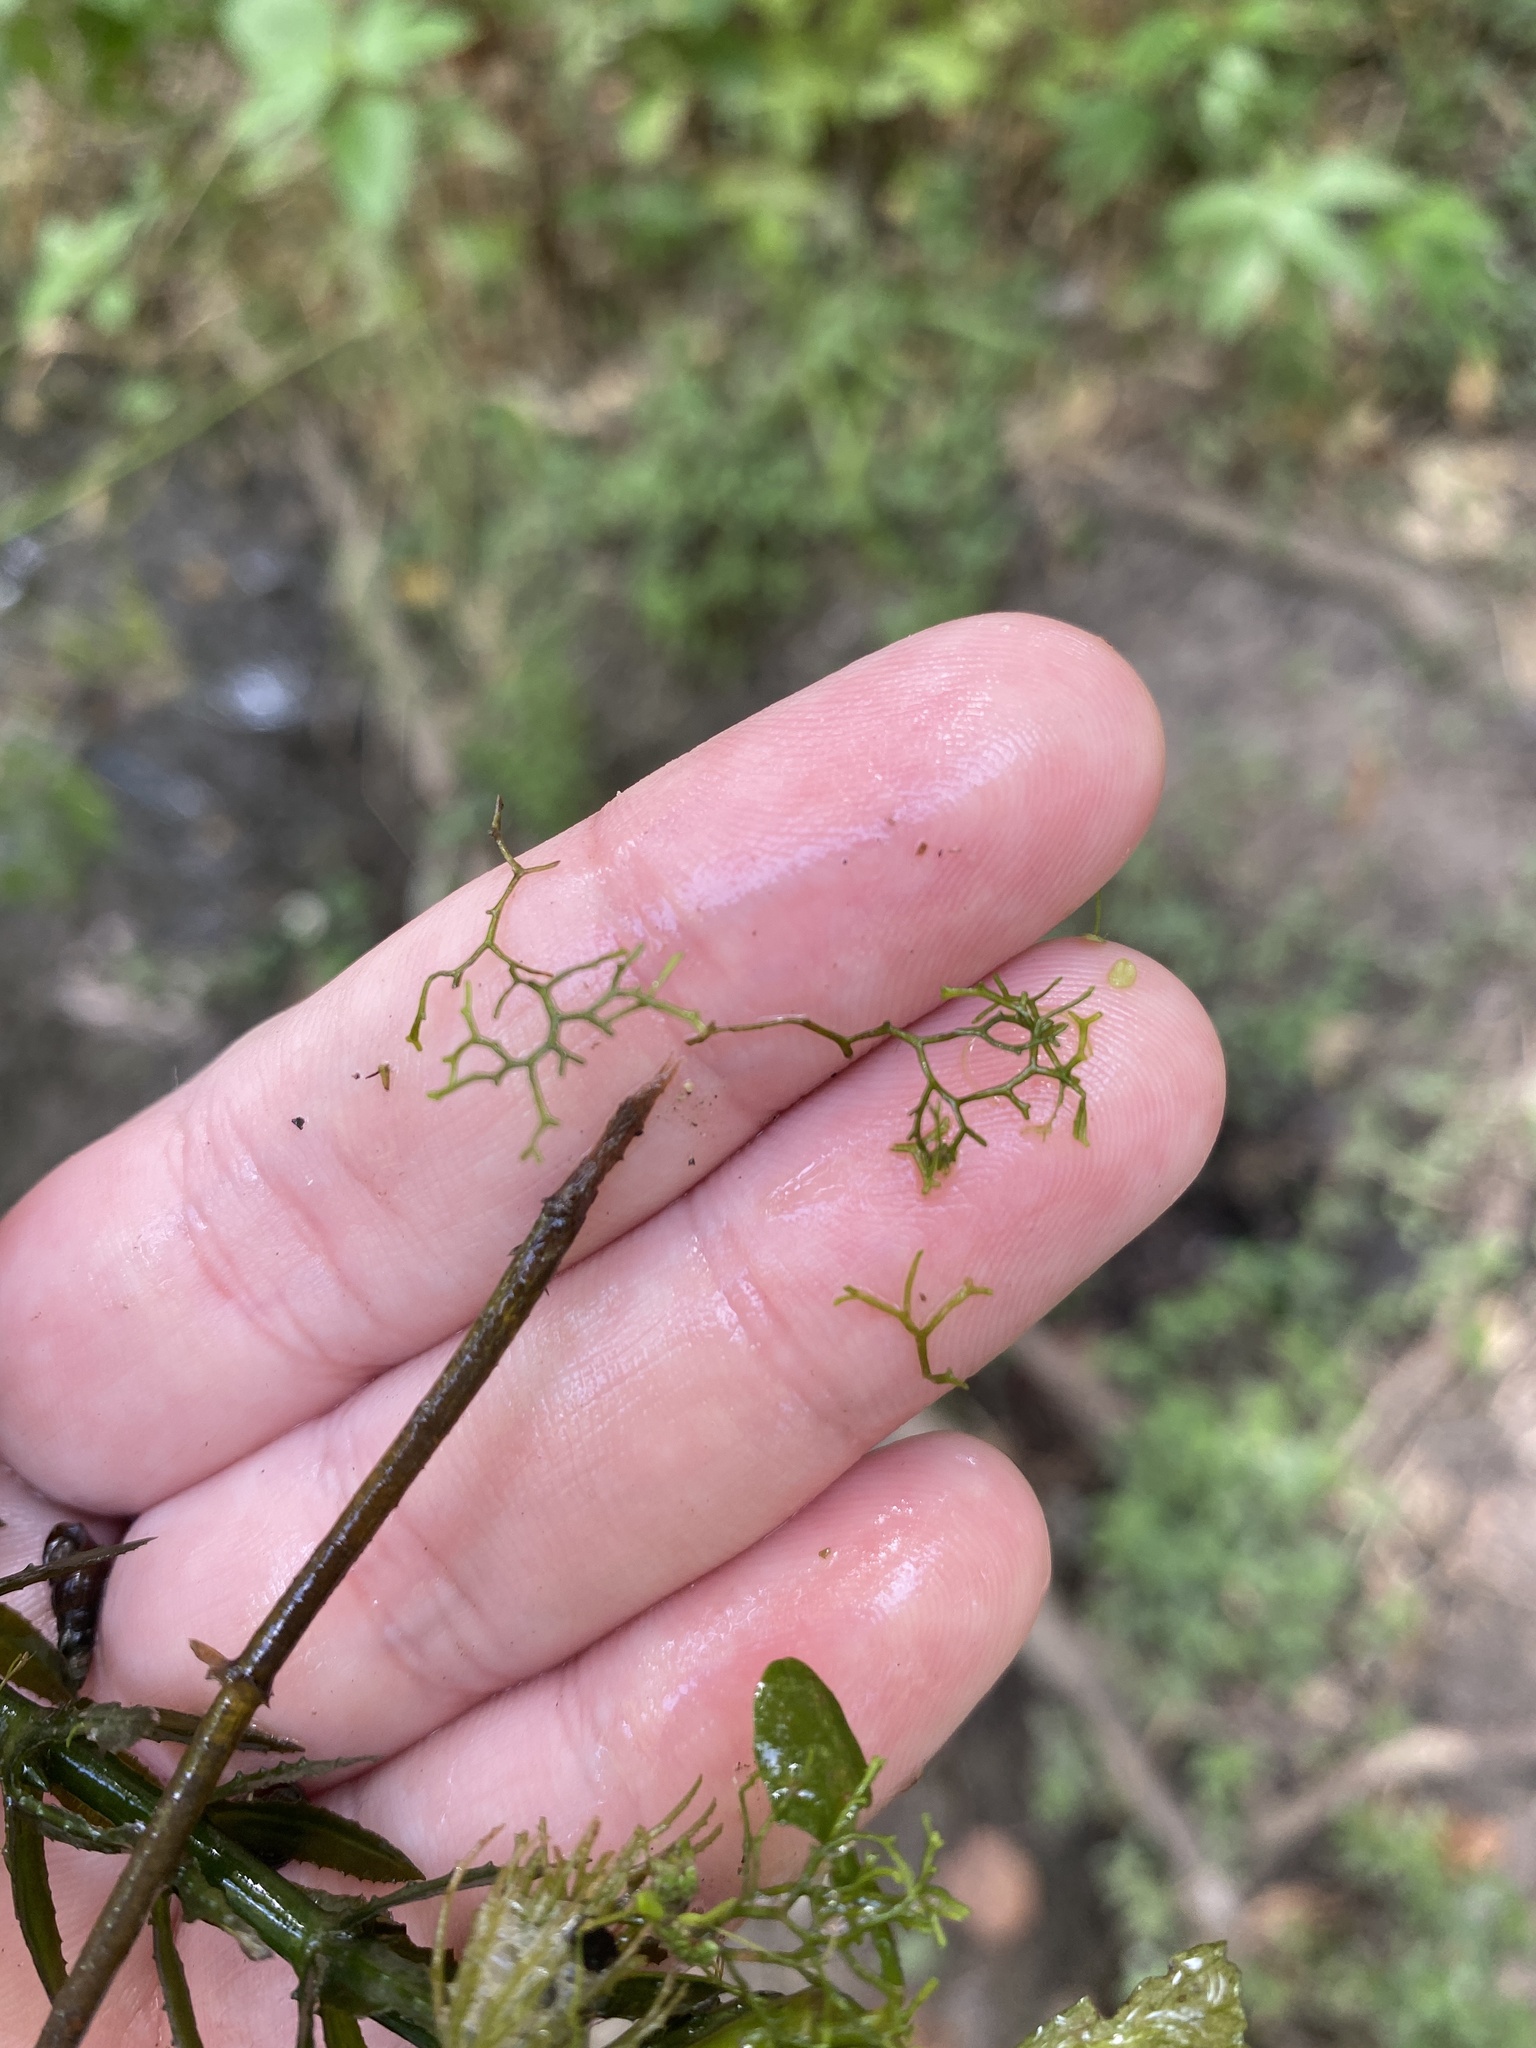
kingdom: Plantae
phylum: Marchantiophyta
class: Marchantiopsida
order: Marchantiales
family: Ricciaceae
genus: Riccia
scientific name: Riccia fluitans
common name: Floating crystalwort
